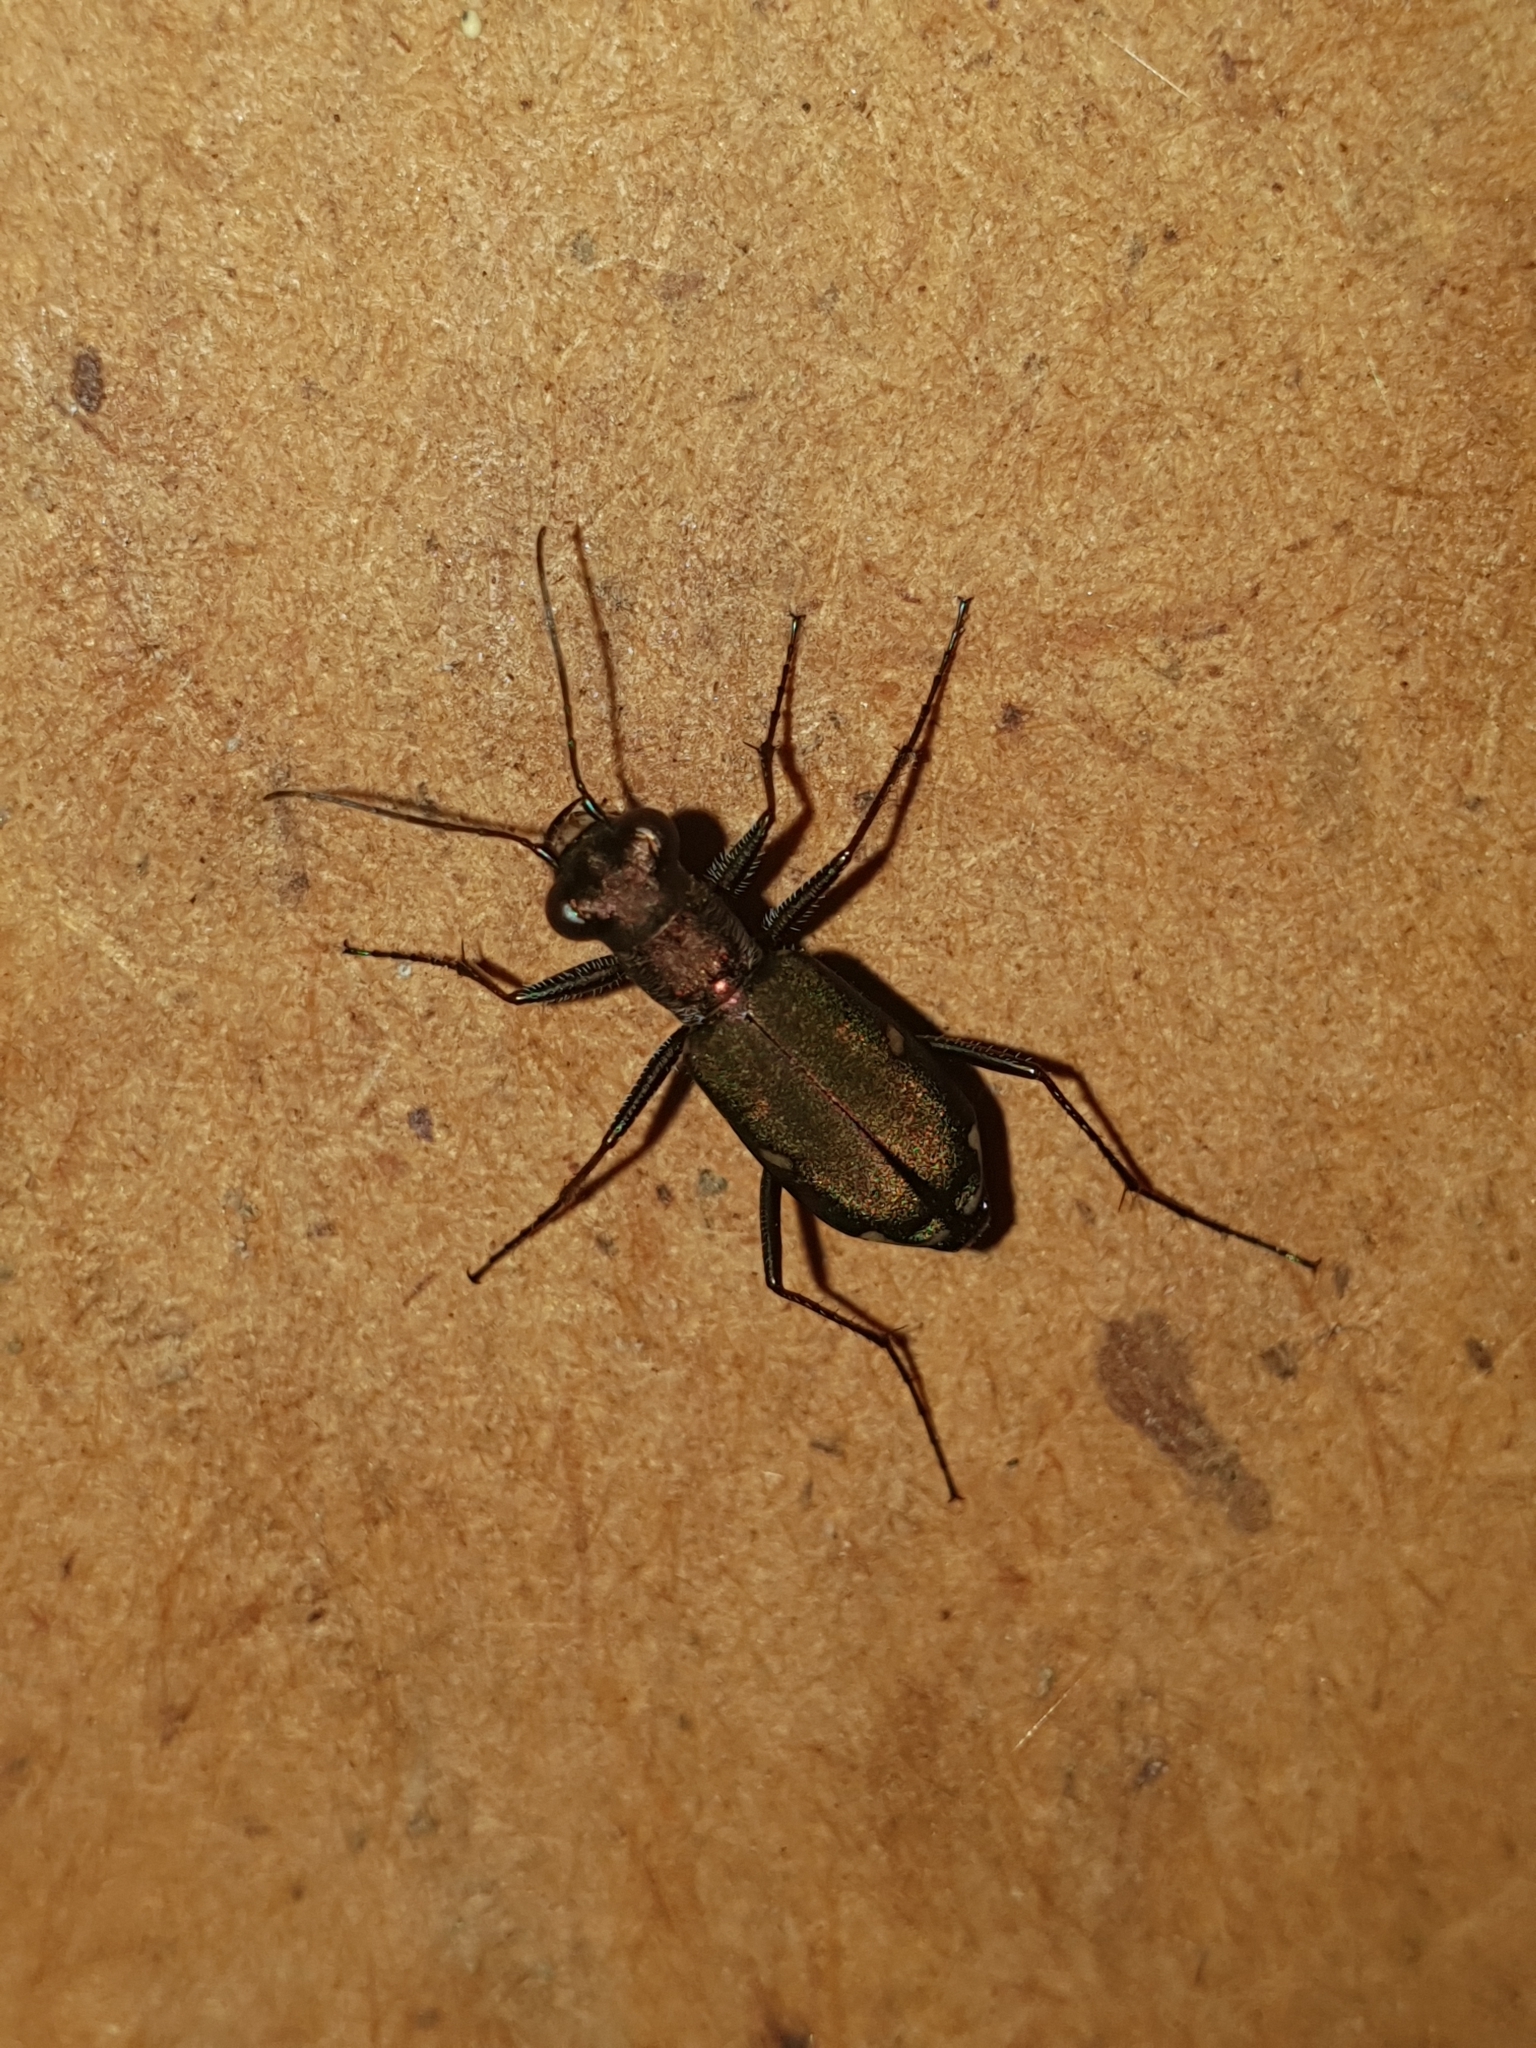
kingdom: Animalia
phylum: Arthropoda
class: Insecta
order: Coleoptera
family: Carabidae
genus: Cylindera
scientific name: Cylindera germanica
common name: Cliff tiger beetle
